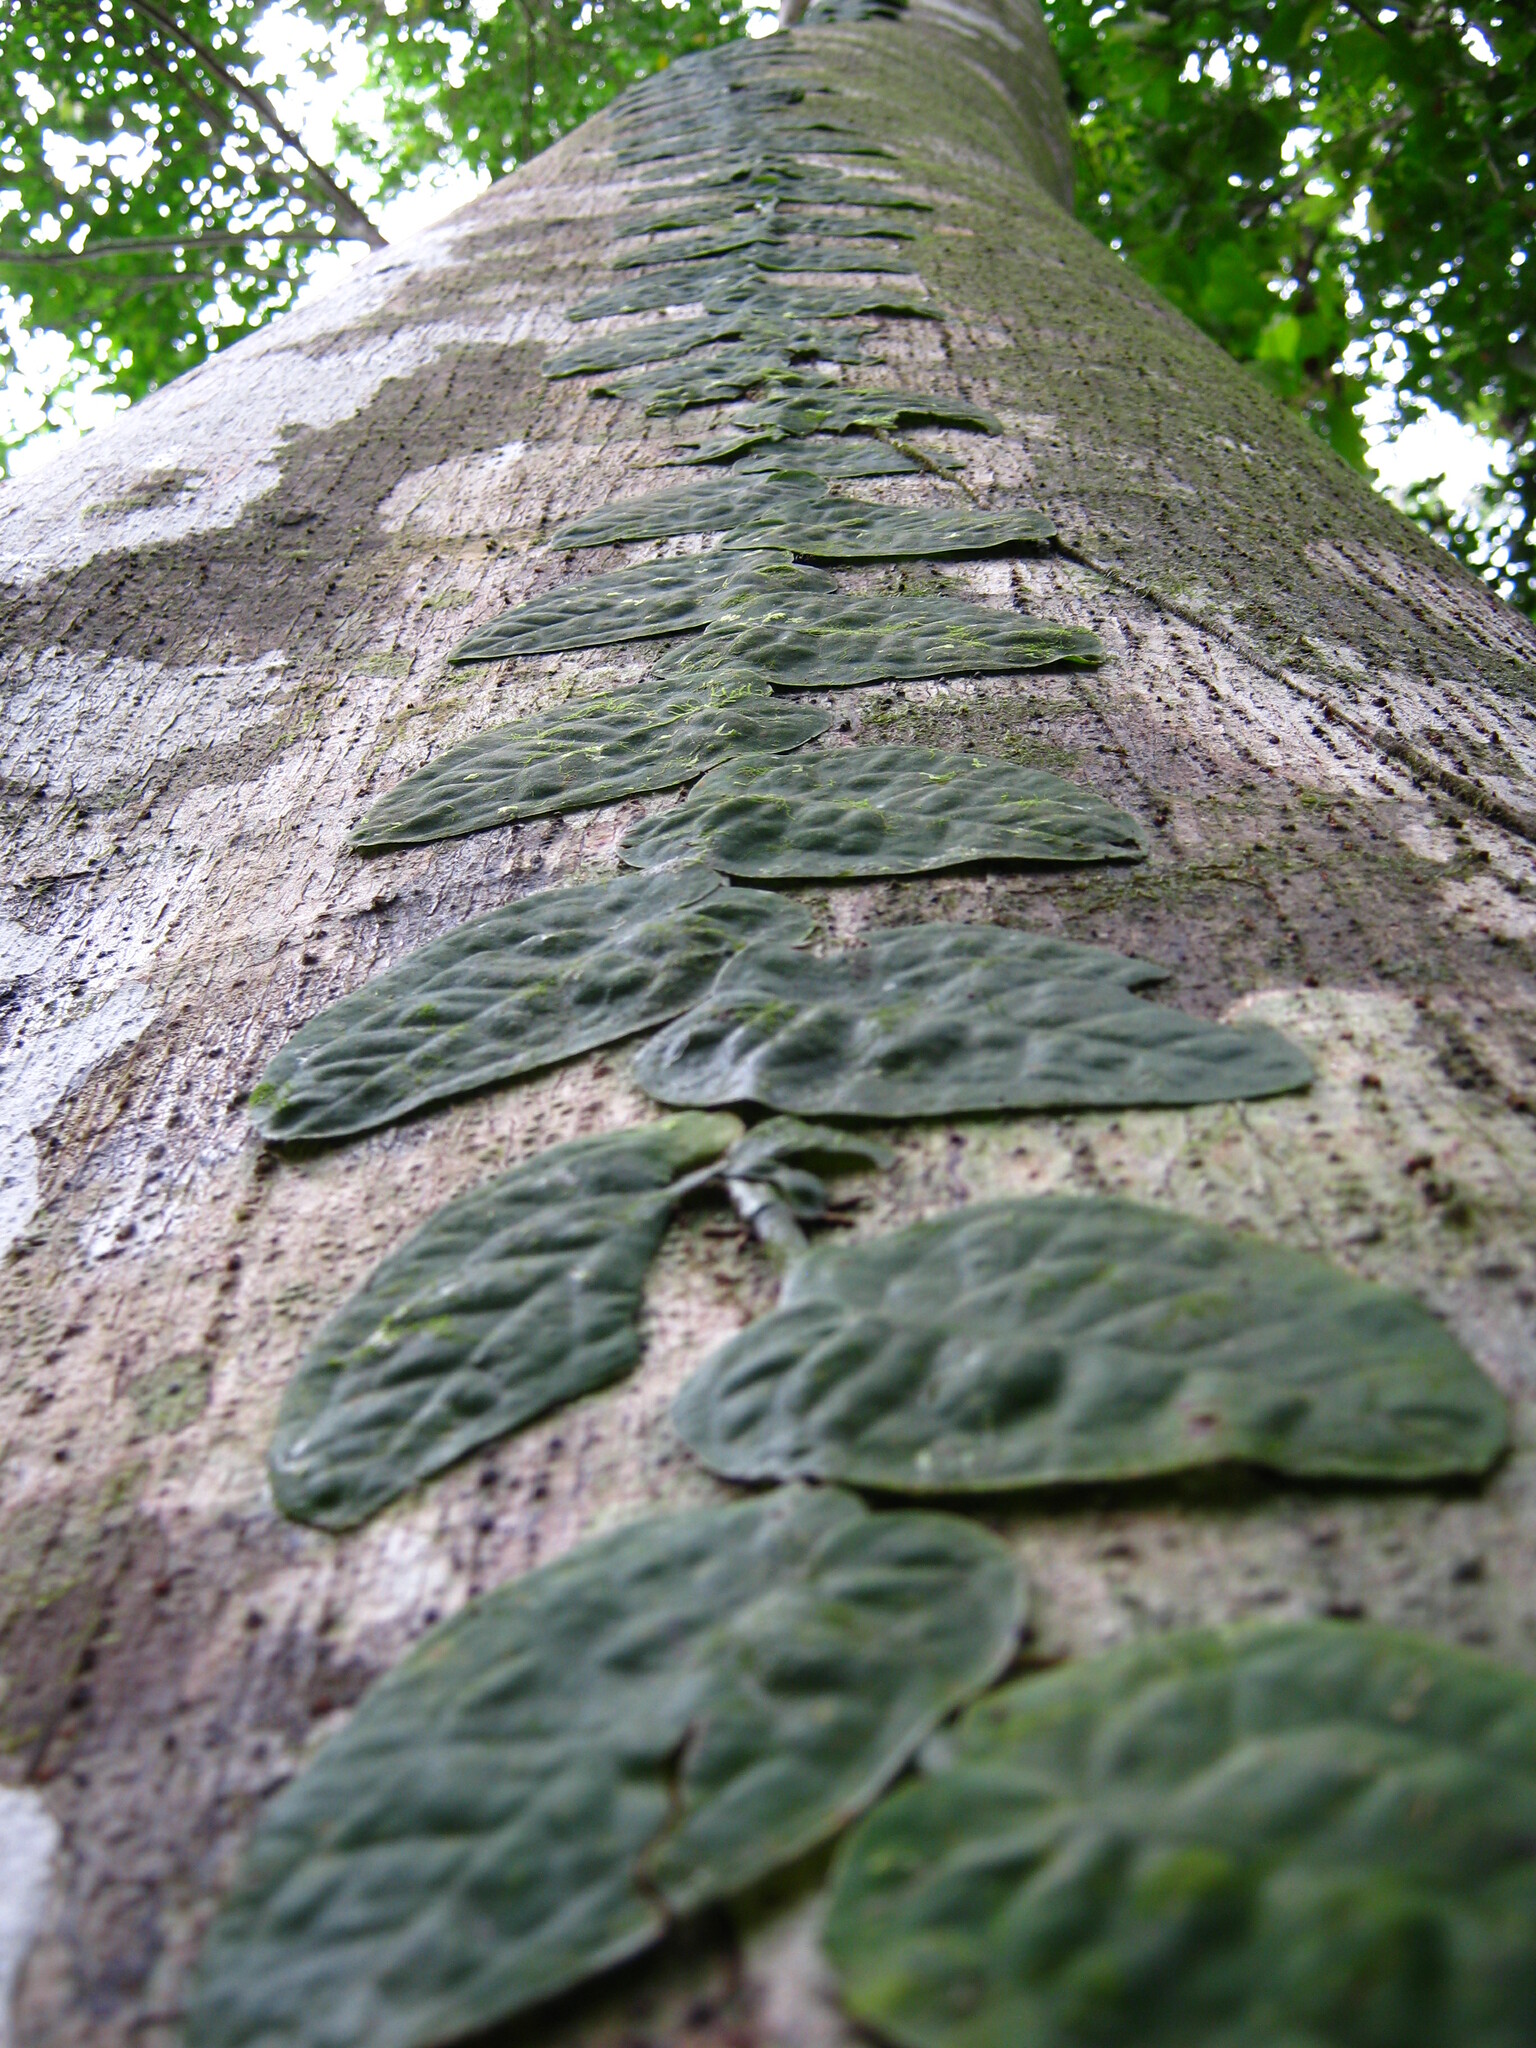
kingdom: Plantae
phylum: Tracheophyta
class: Liliopsida
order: Alismatales
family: Araceae
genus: Monstera
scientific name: Monstera dubia
